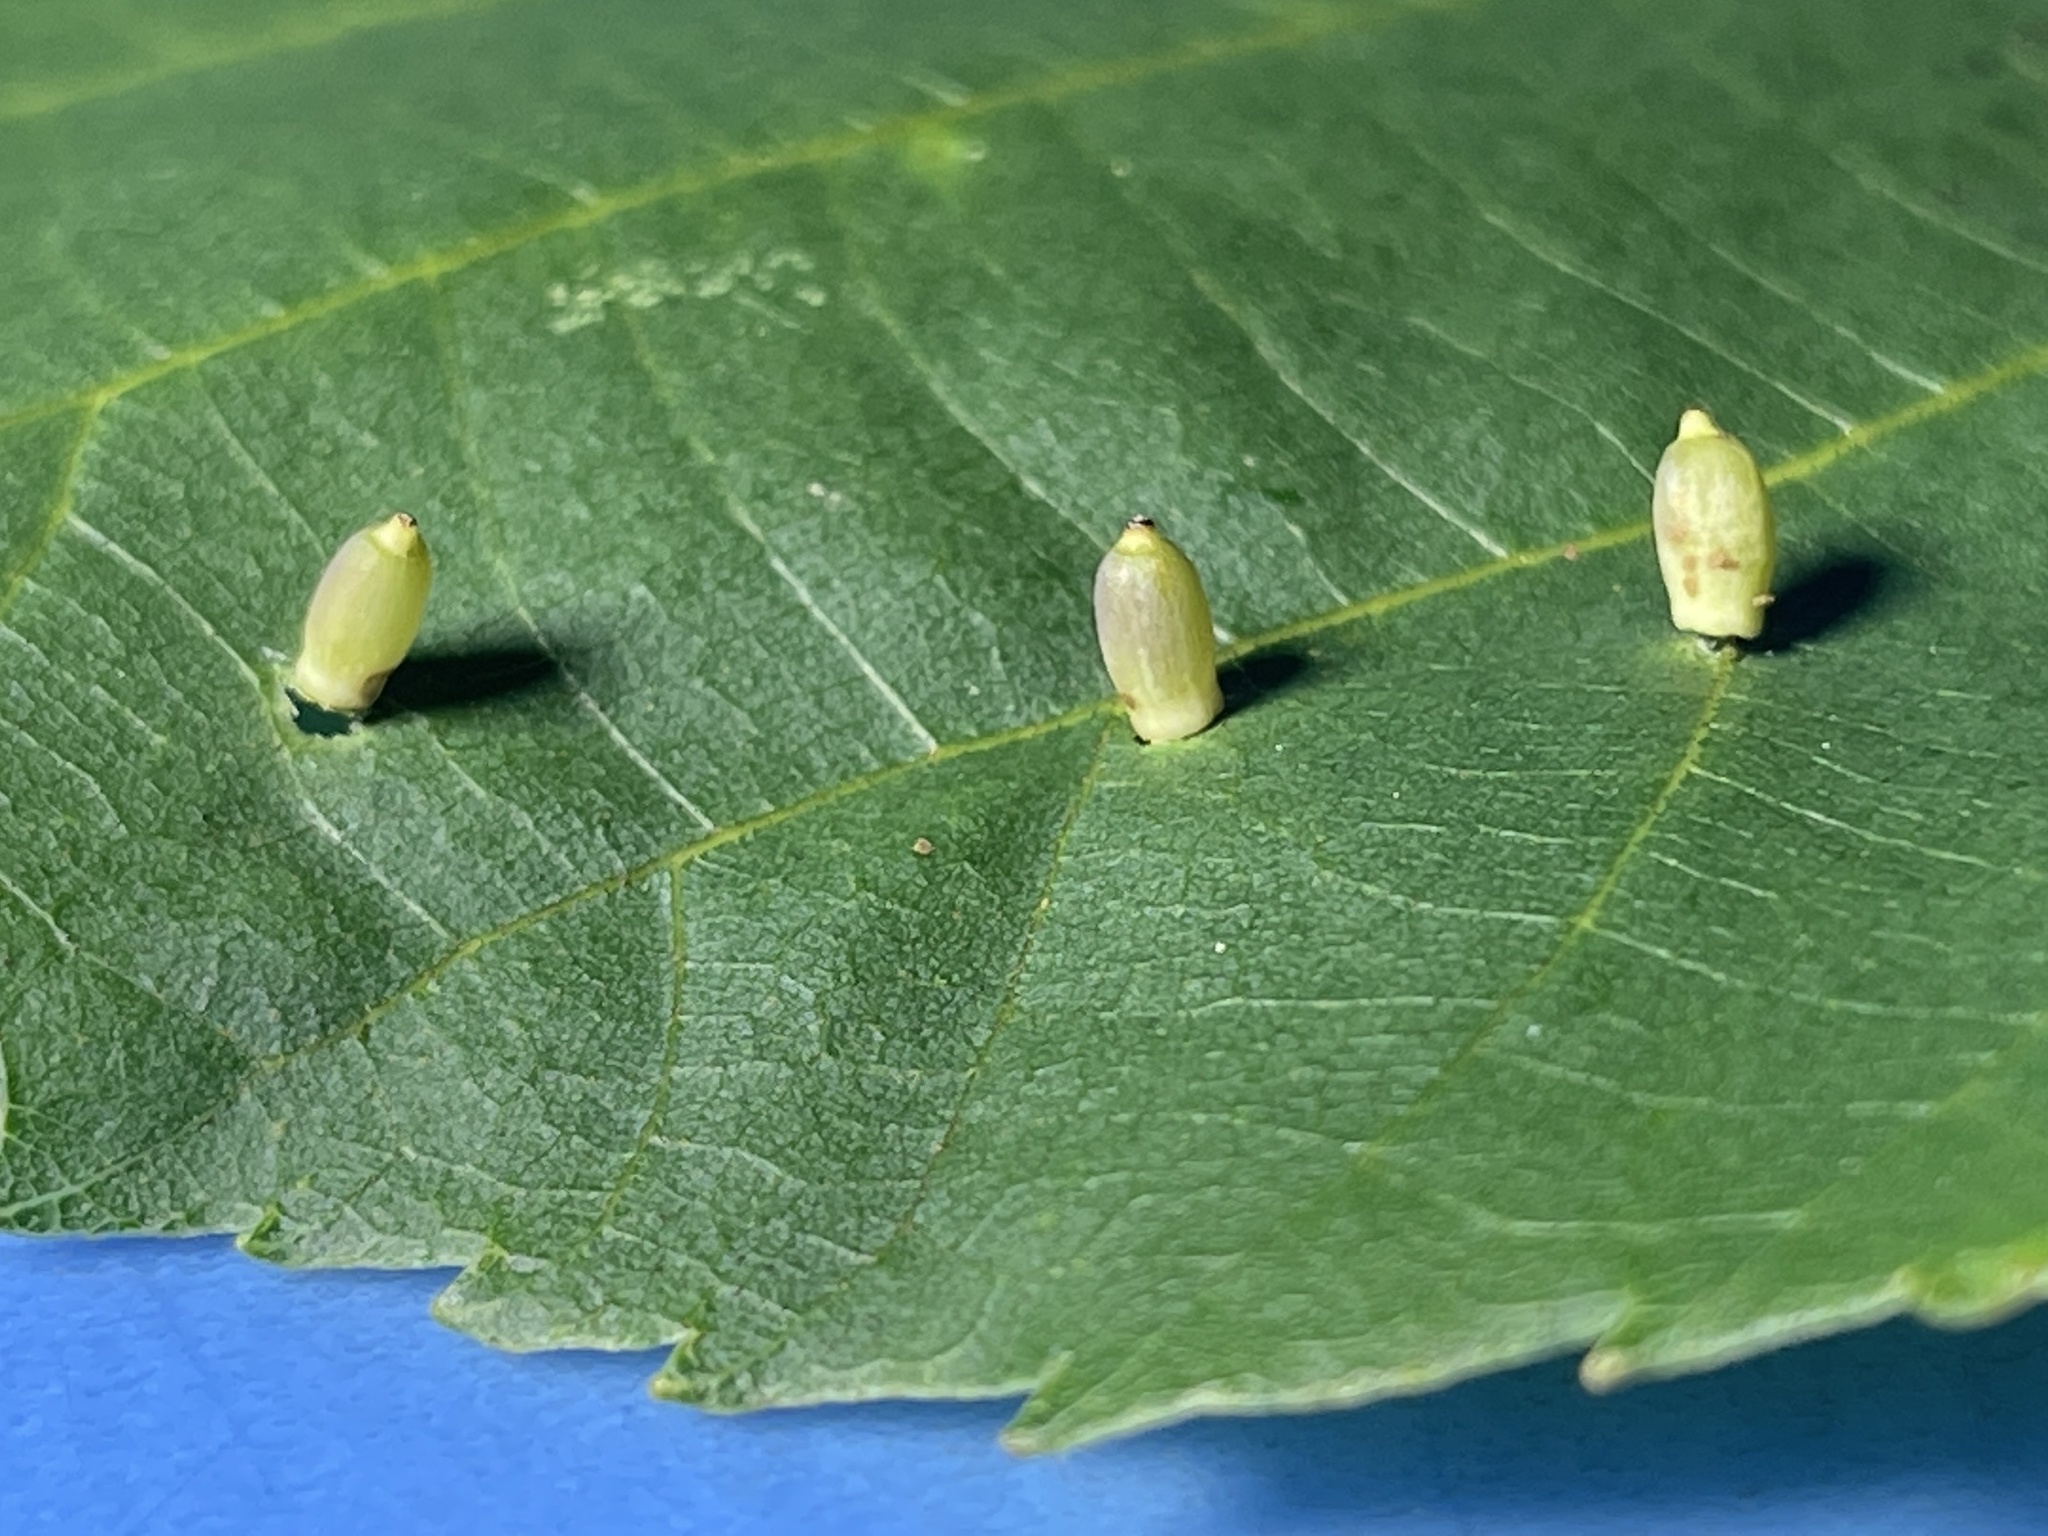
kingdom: Animalia
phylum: Arthropoda
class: Insecta
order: Diptera
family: Cecidomyiidae
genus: Caryomyia
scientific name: Caryomyia urnula
